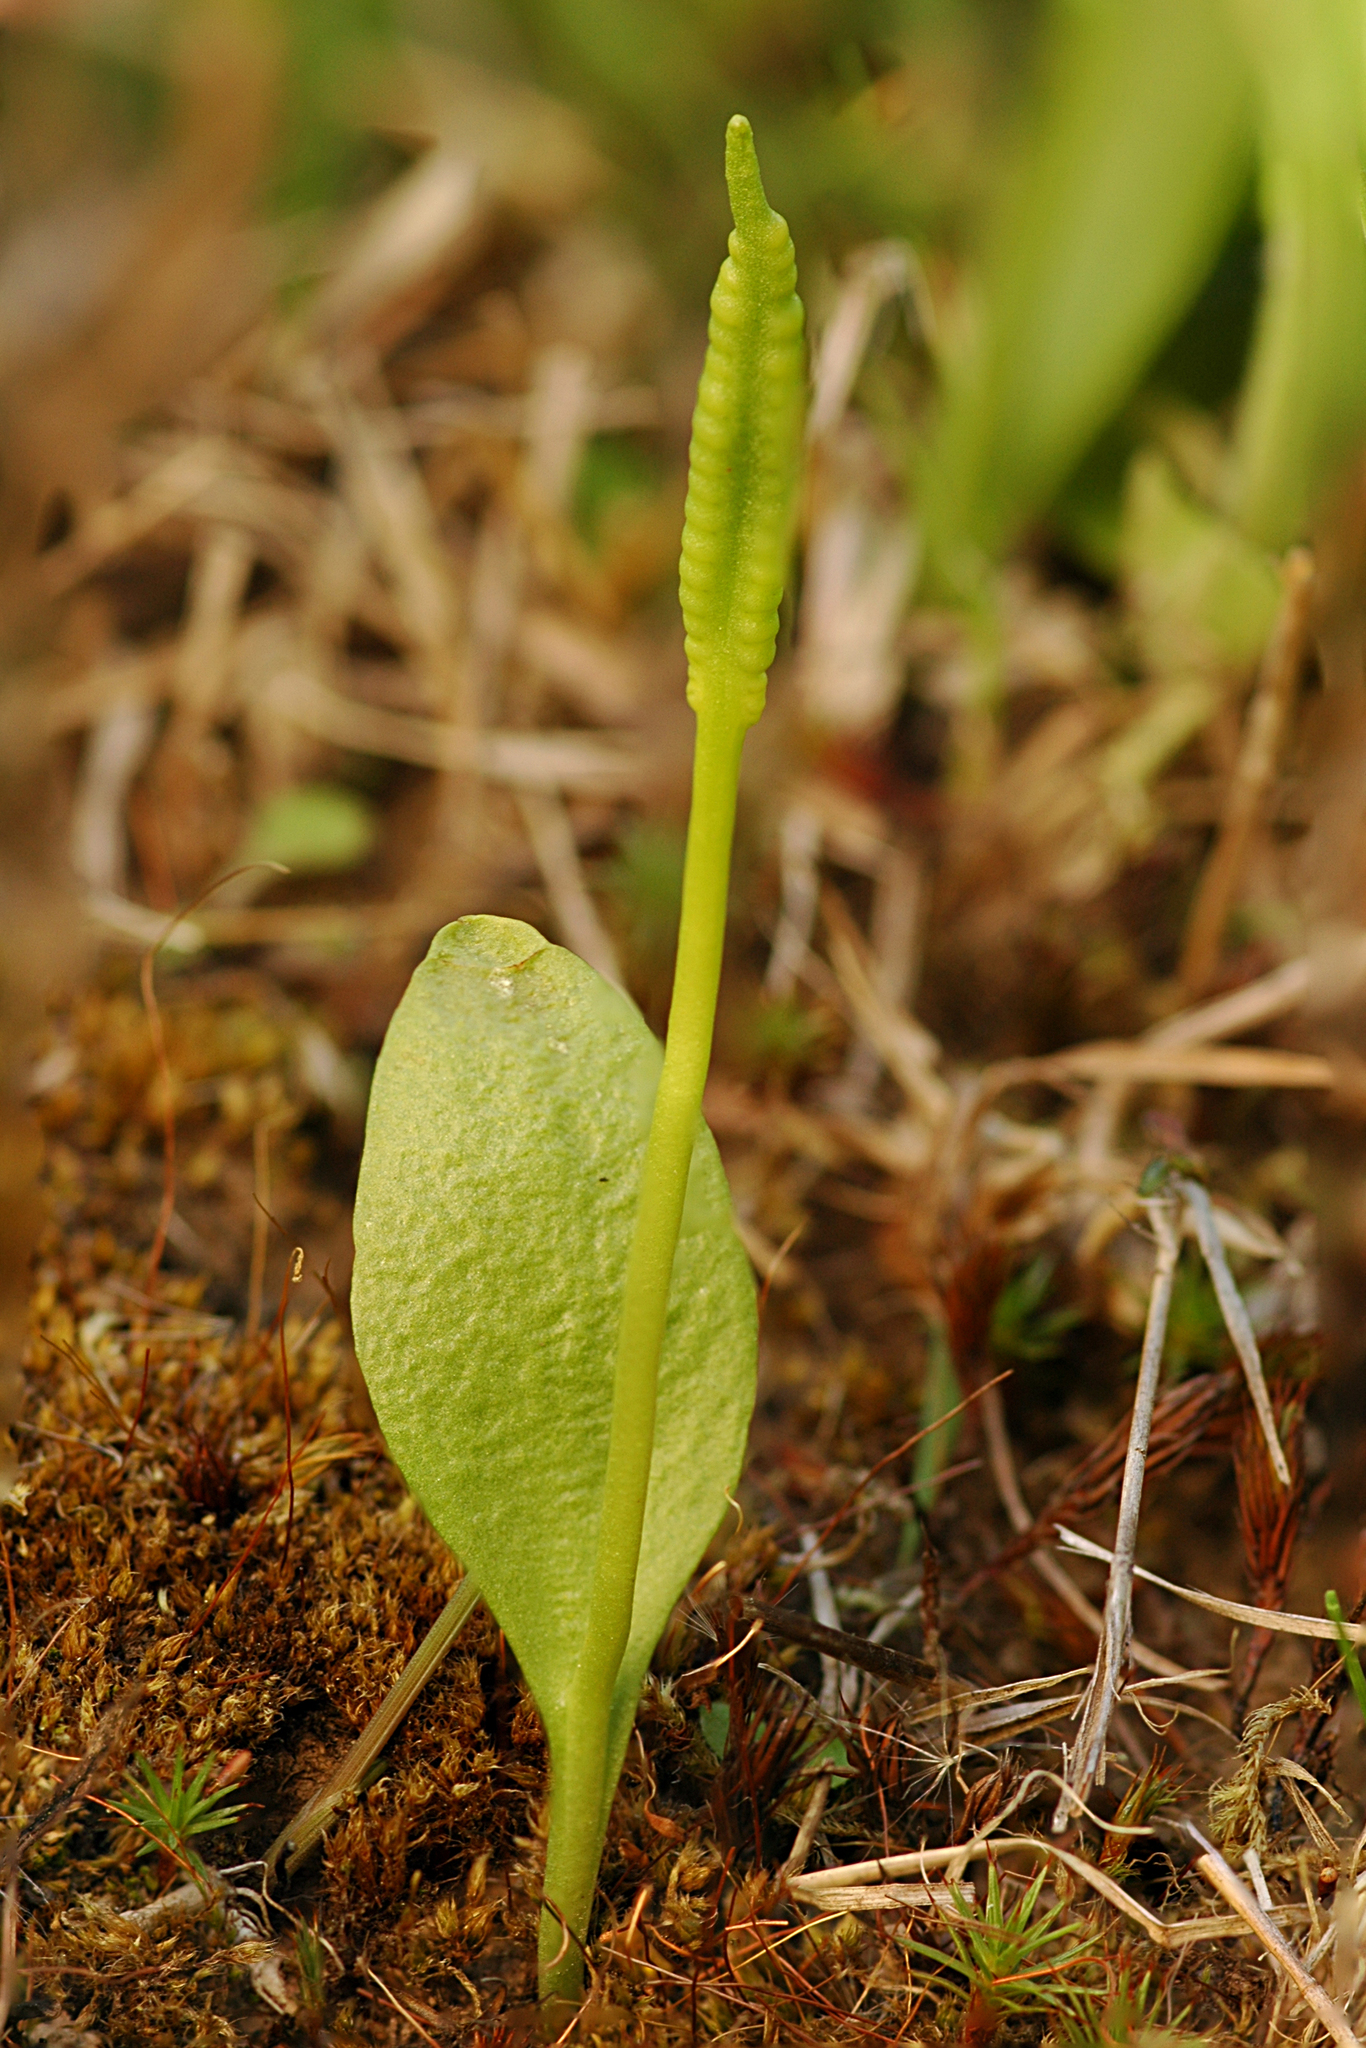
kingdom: Plantae
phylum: Tracheophyta
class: Polypodiopsida
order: Ophioglossales
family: Ophioglossaceae
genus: Ophioglossum
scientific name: Ophioglossum pusillum
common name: Northern adder's-tongue
